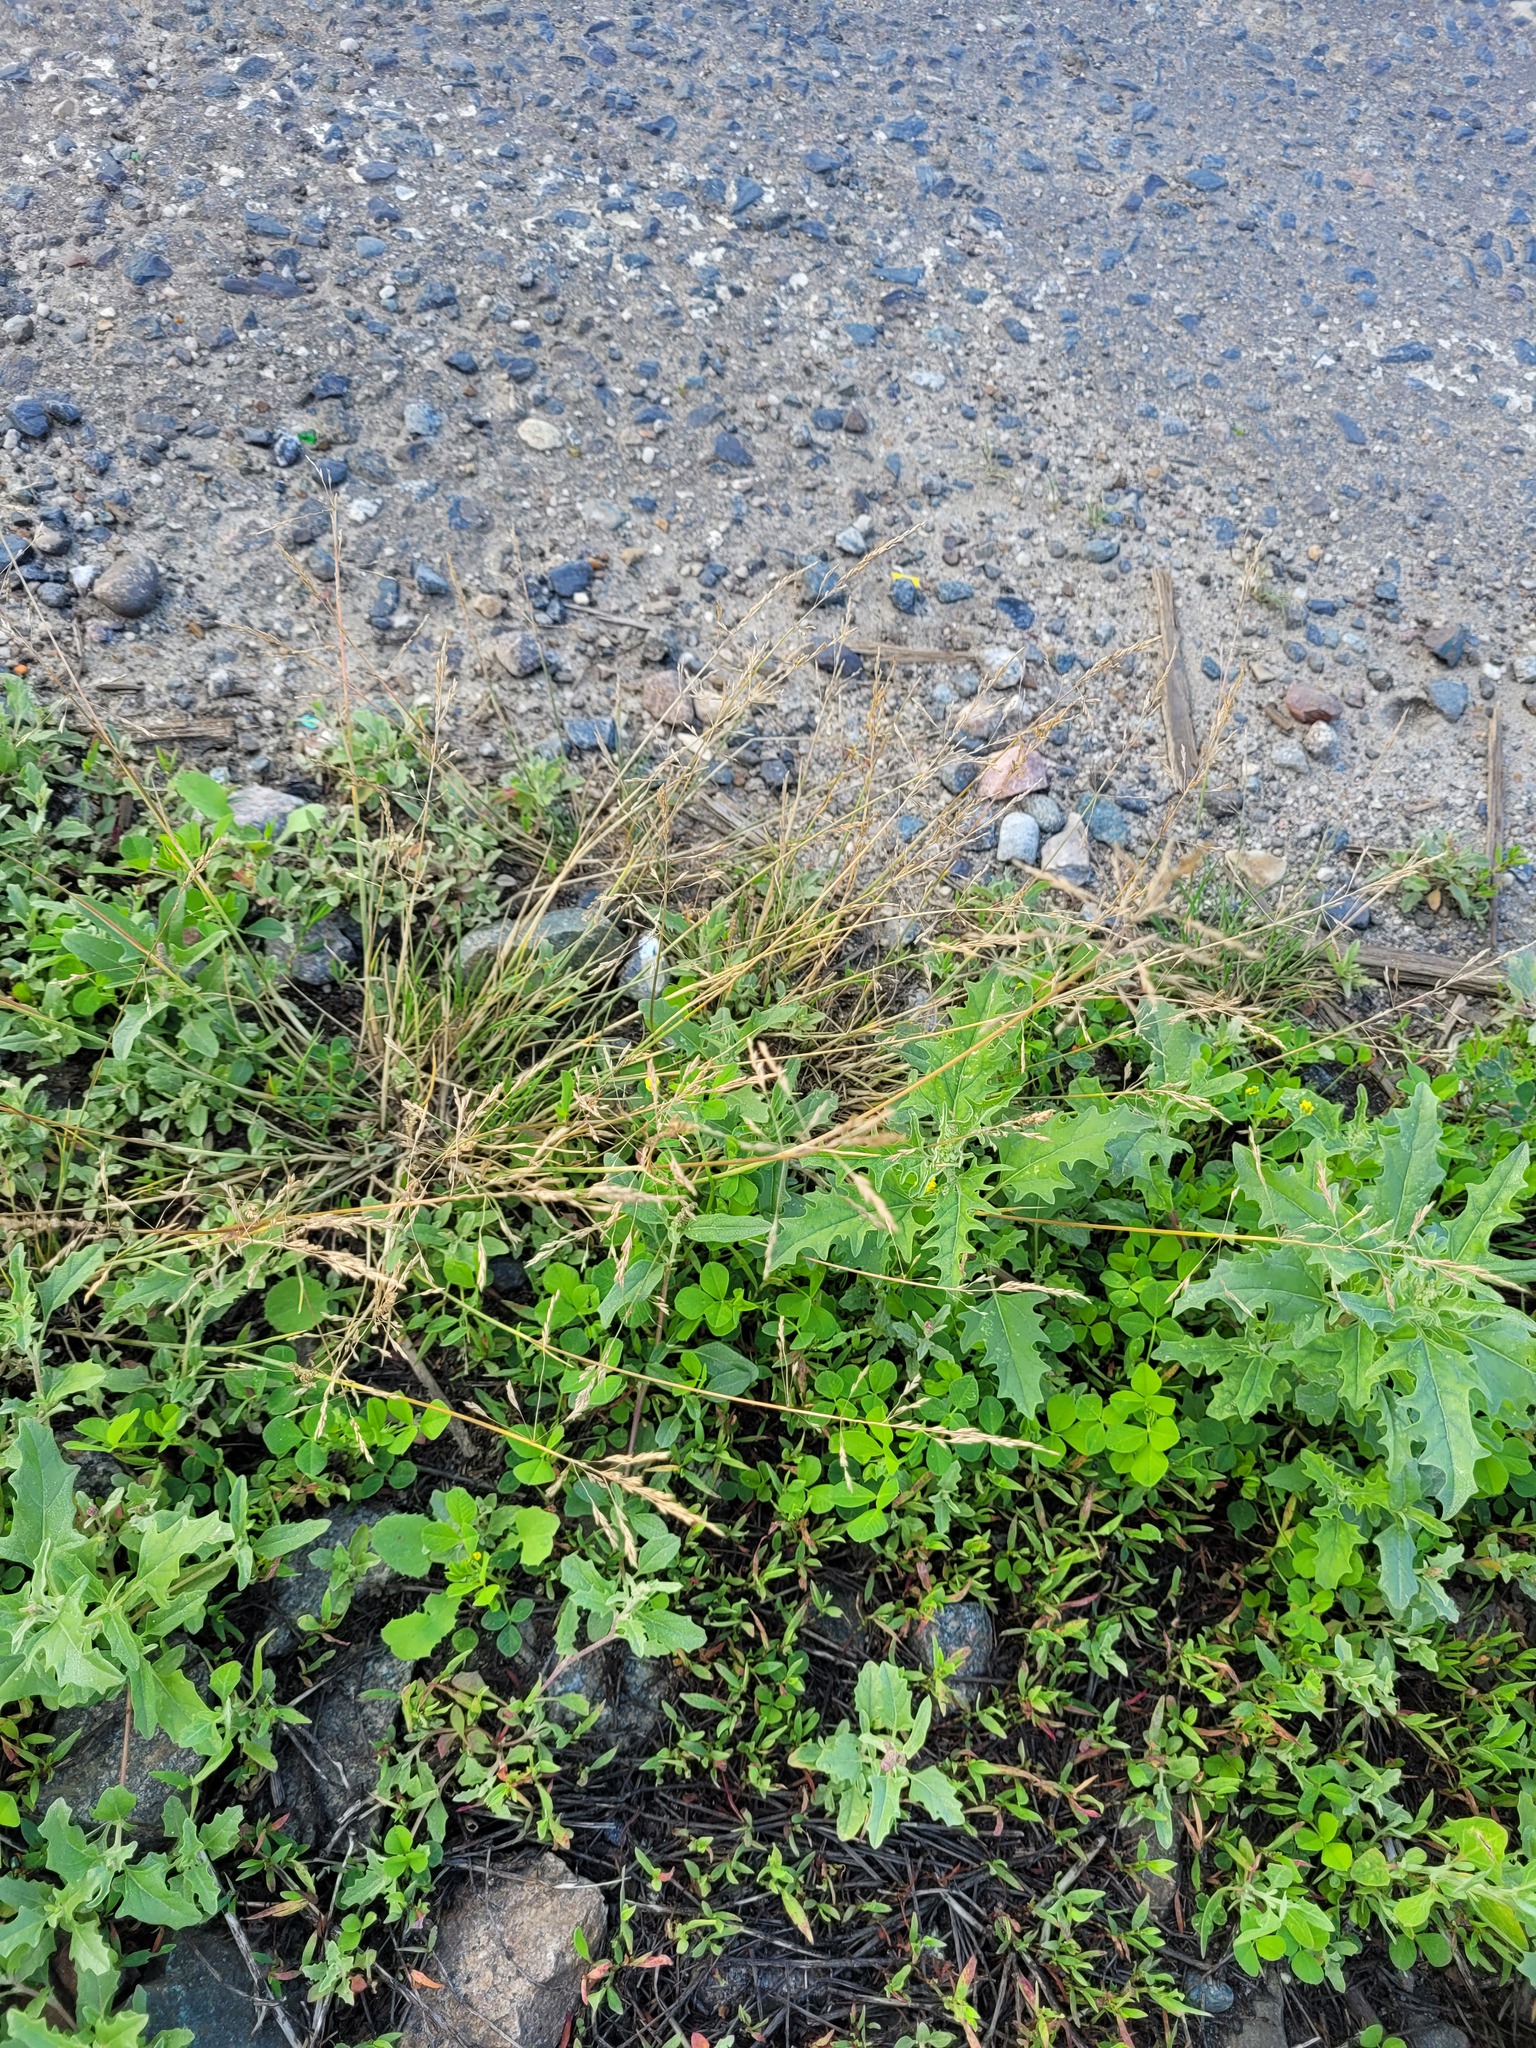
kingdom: Plantae
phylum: Tracheophyta
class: Liliopsida
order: Poales
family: Poaceae
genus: Puccinellia
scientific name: Puccinellia distans
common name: Weeping alkaligrass
